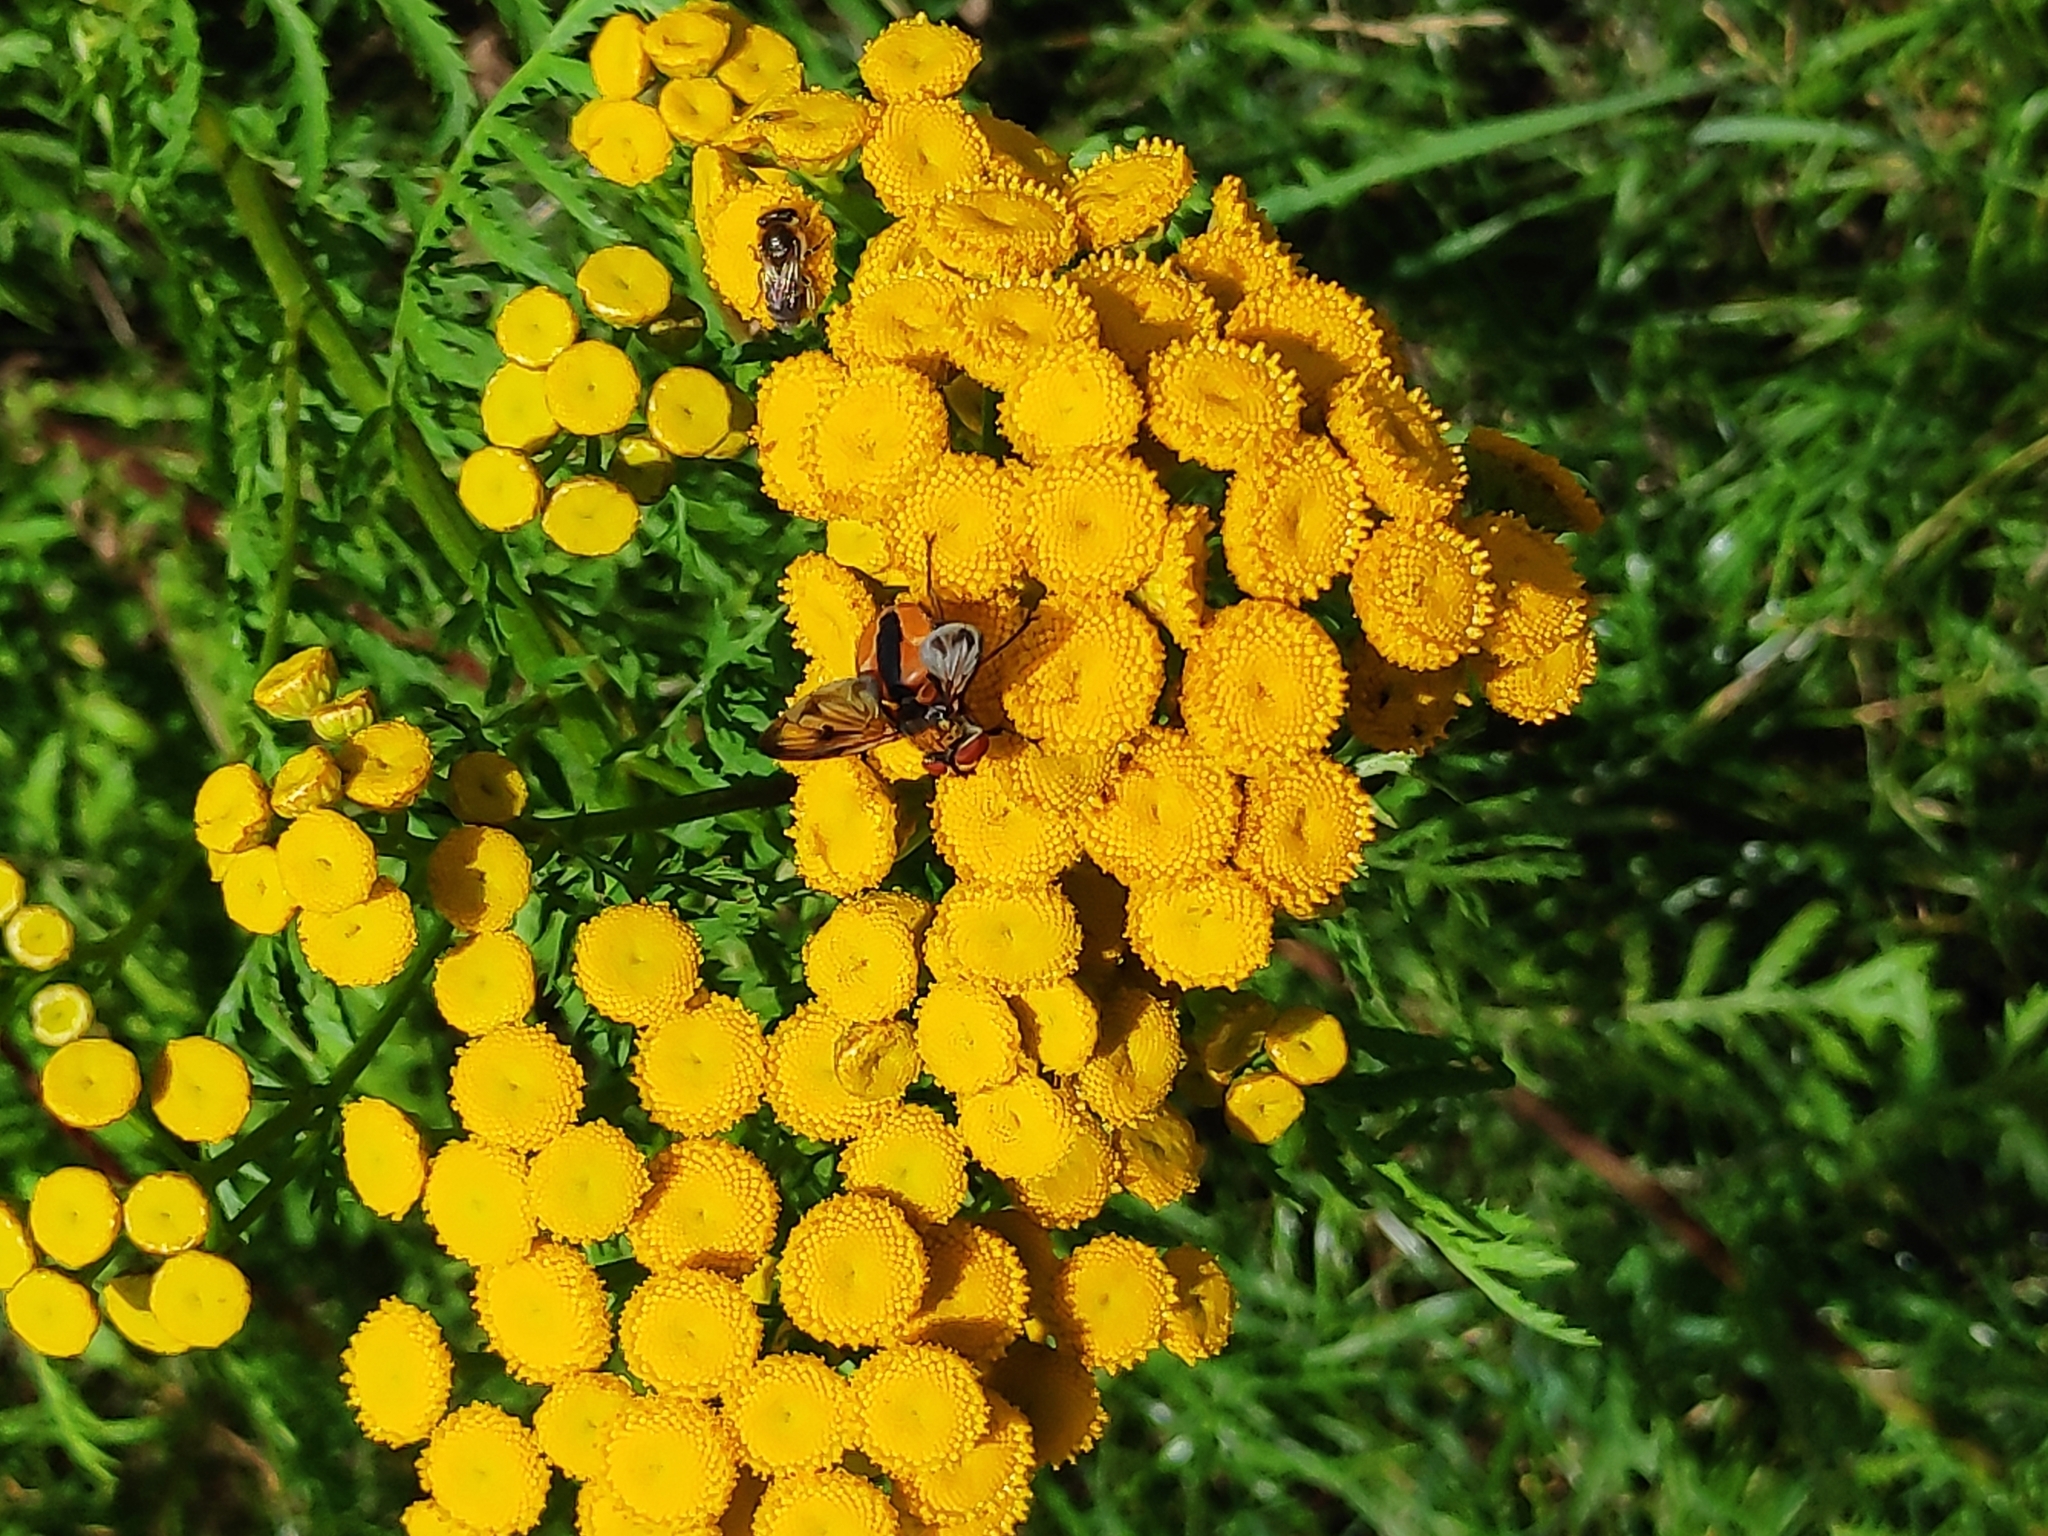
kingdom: Animalia
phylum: Arthropoda
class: Insecta
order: Diptera
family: Tachinidae
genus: Ectophasia
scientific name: Ectophasia crassipennis
